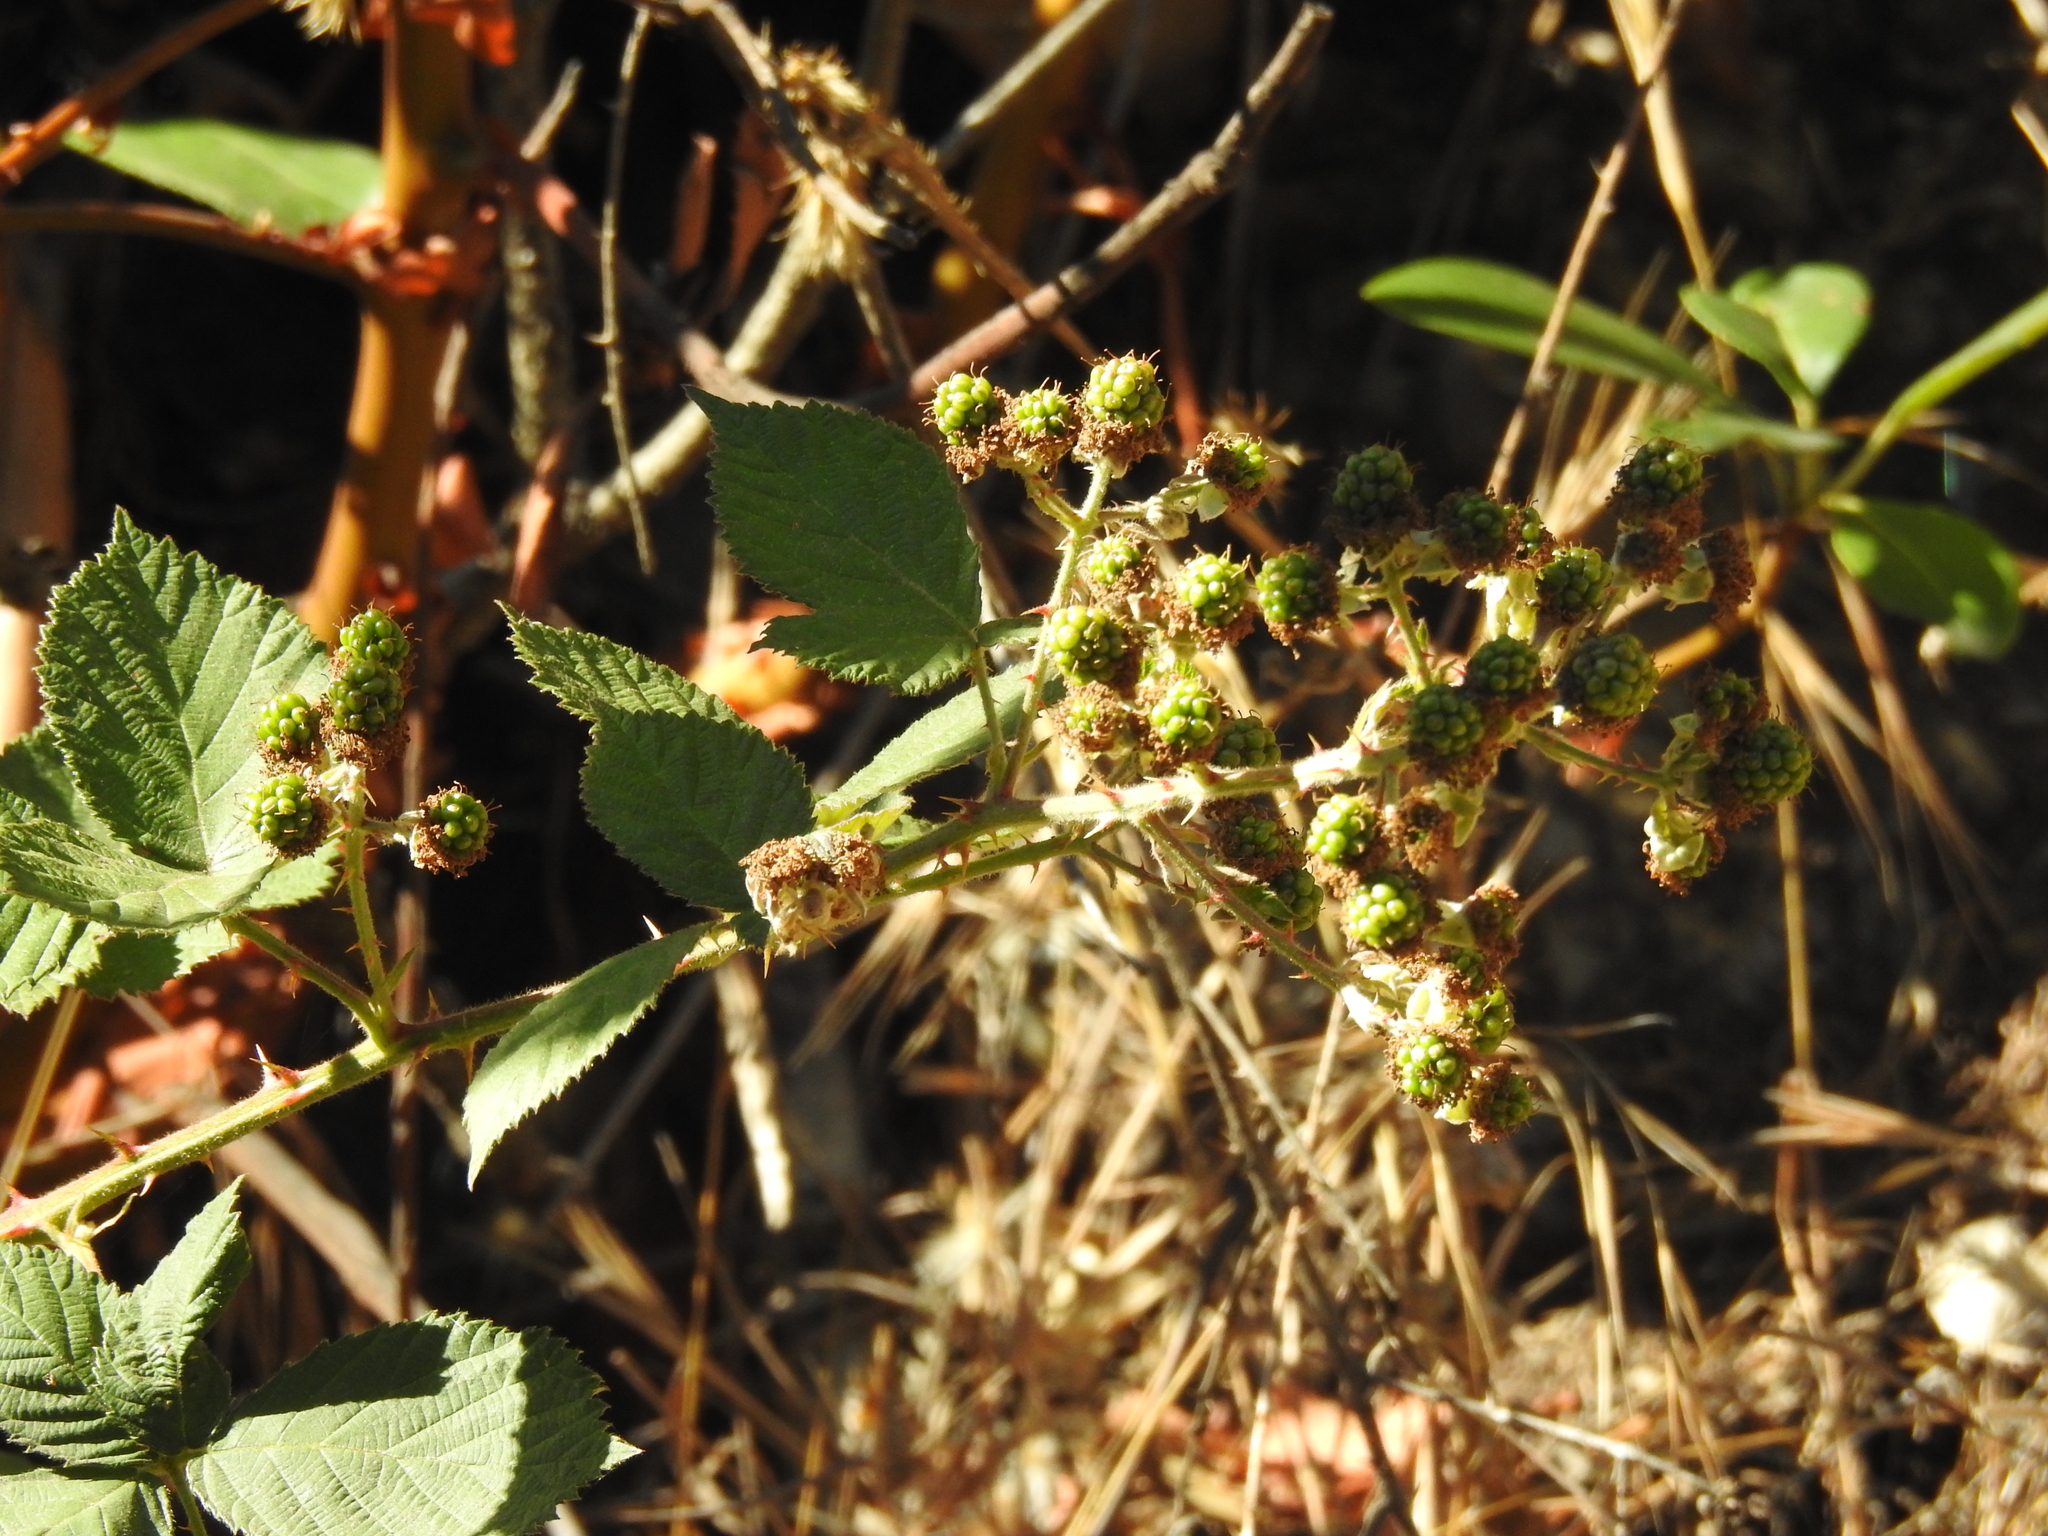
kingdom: Plantae
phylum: Tracheophyta
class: Magnoliopsida
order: Rosales
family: Rosaceae
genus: Rubus
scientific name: Rubus armeniacus
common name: Himalayan blackberry
